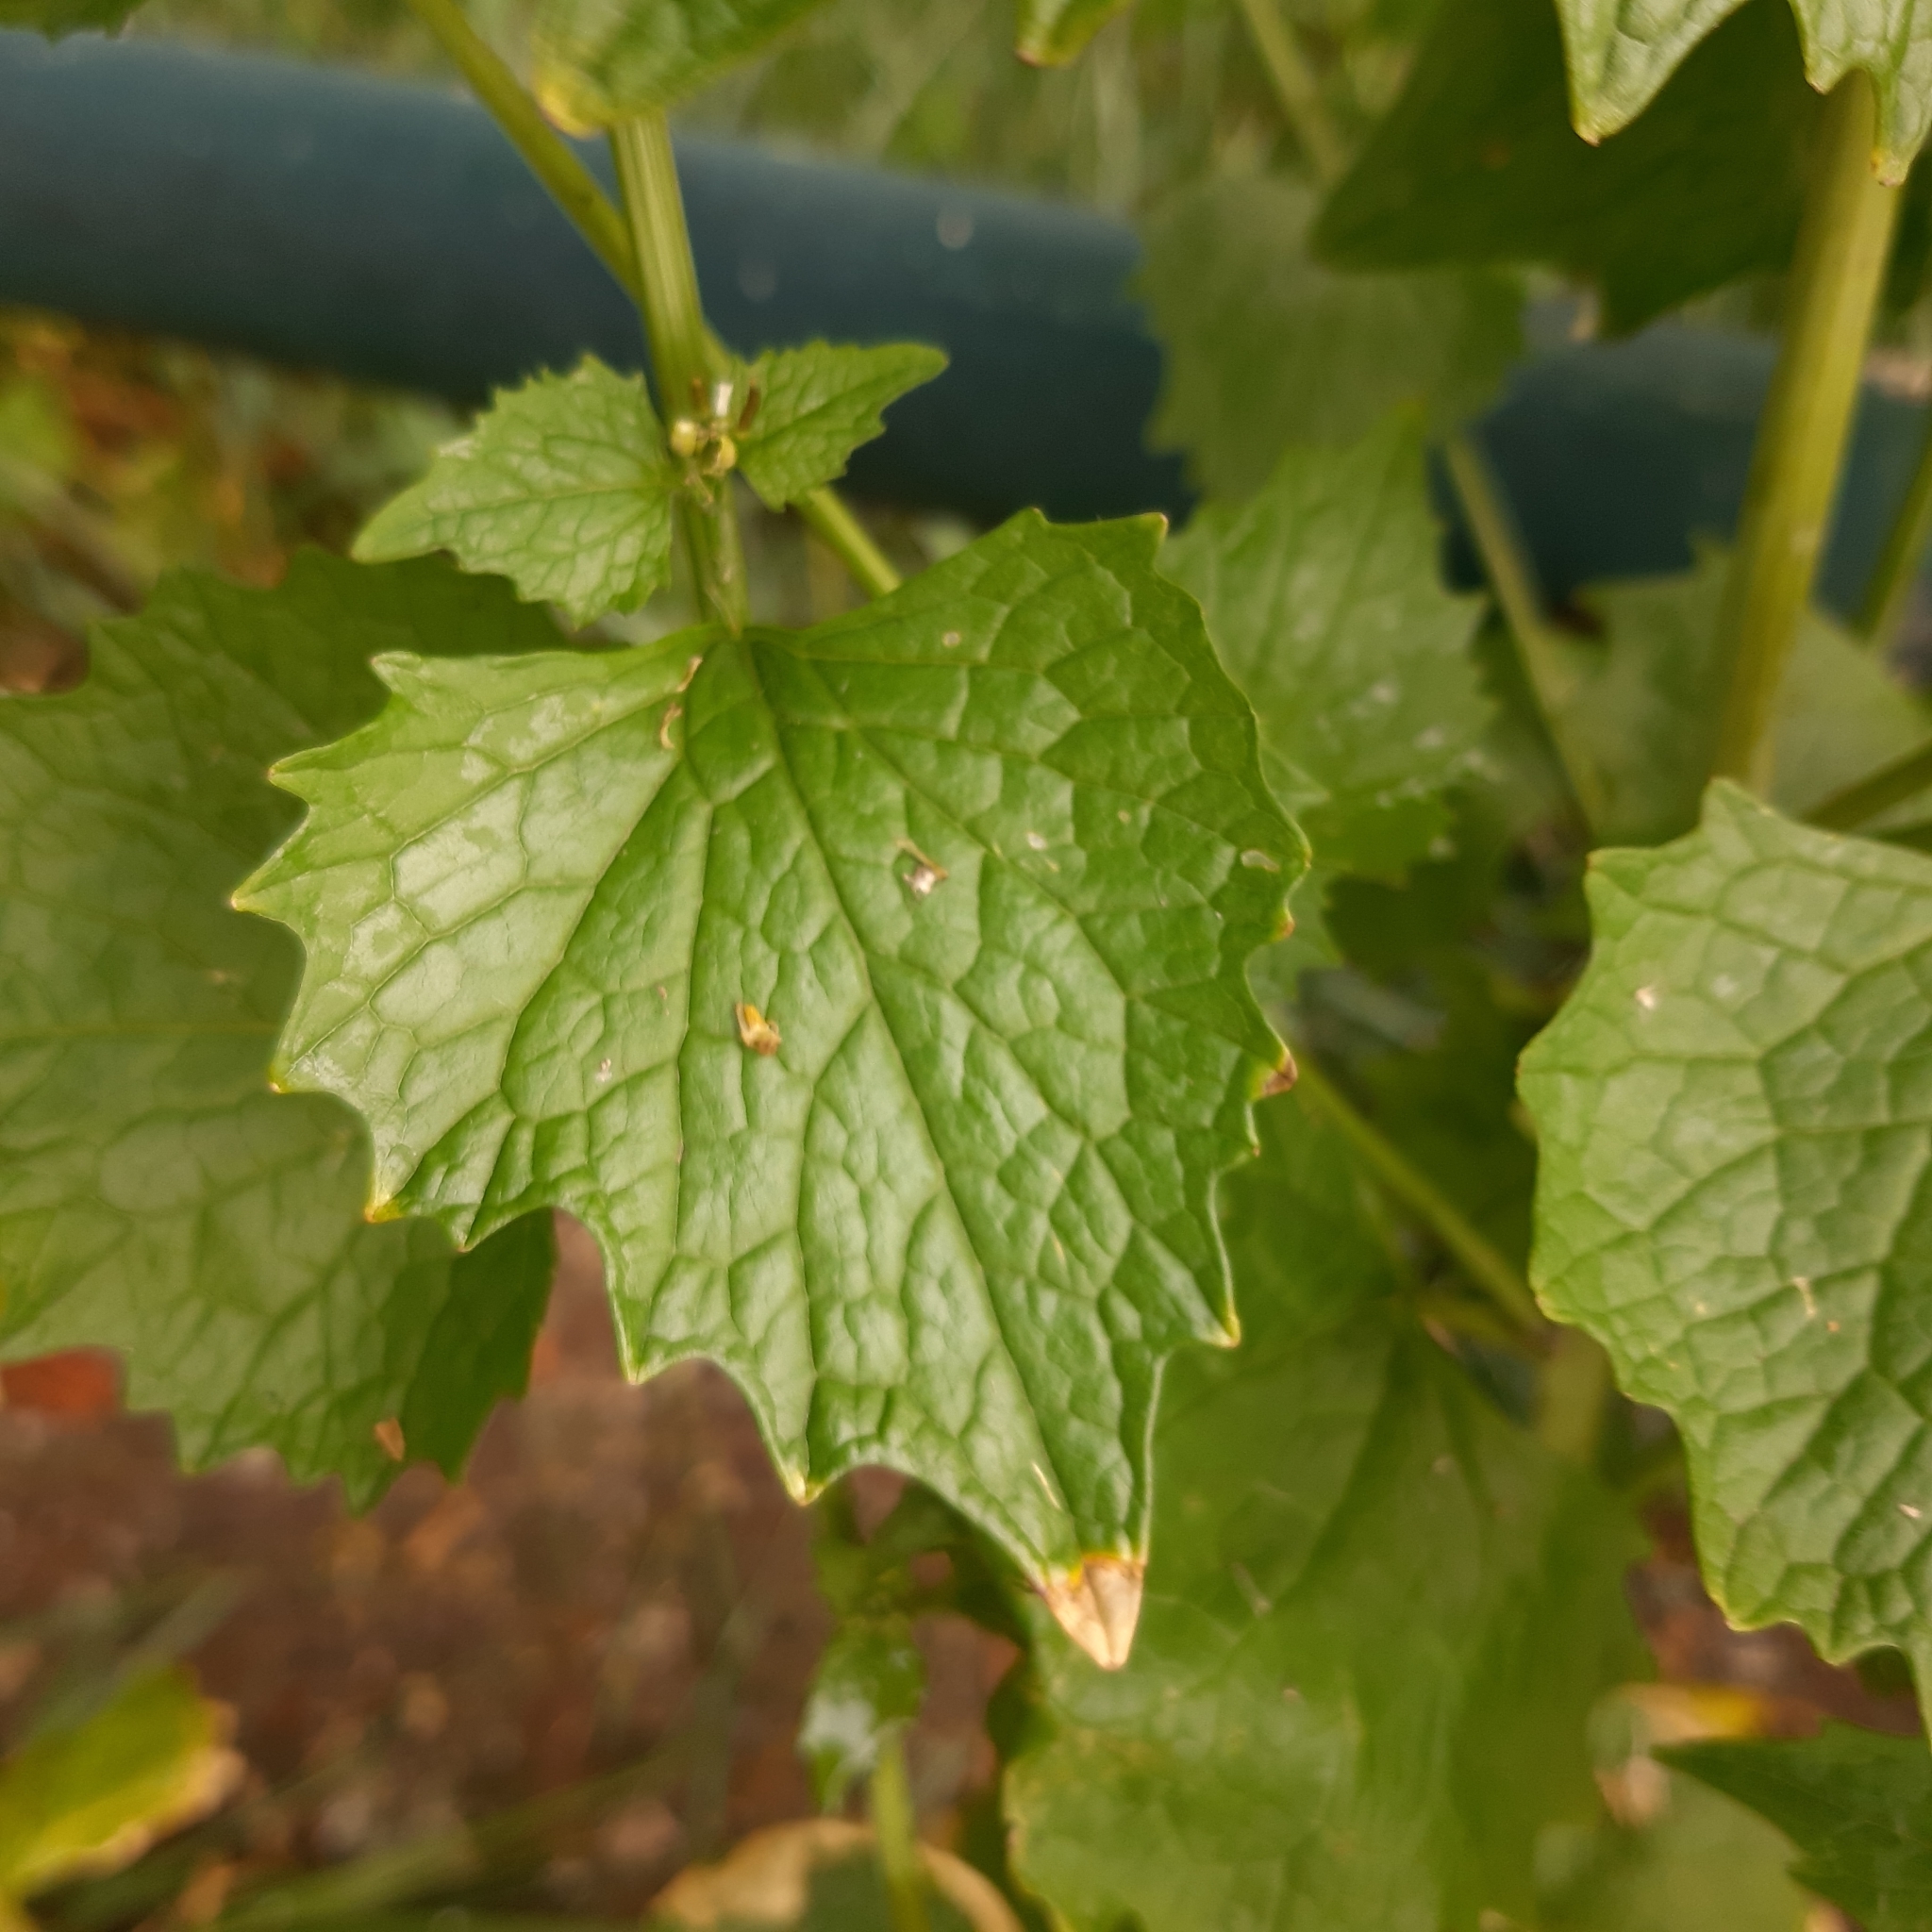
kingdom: Plantae
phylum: Tracheophyta
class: Magnoliopsida
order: Brassicales
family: Brassicaceae
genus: Alliaria
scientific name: Alliaria petiolata
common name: Garlic mustard
